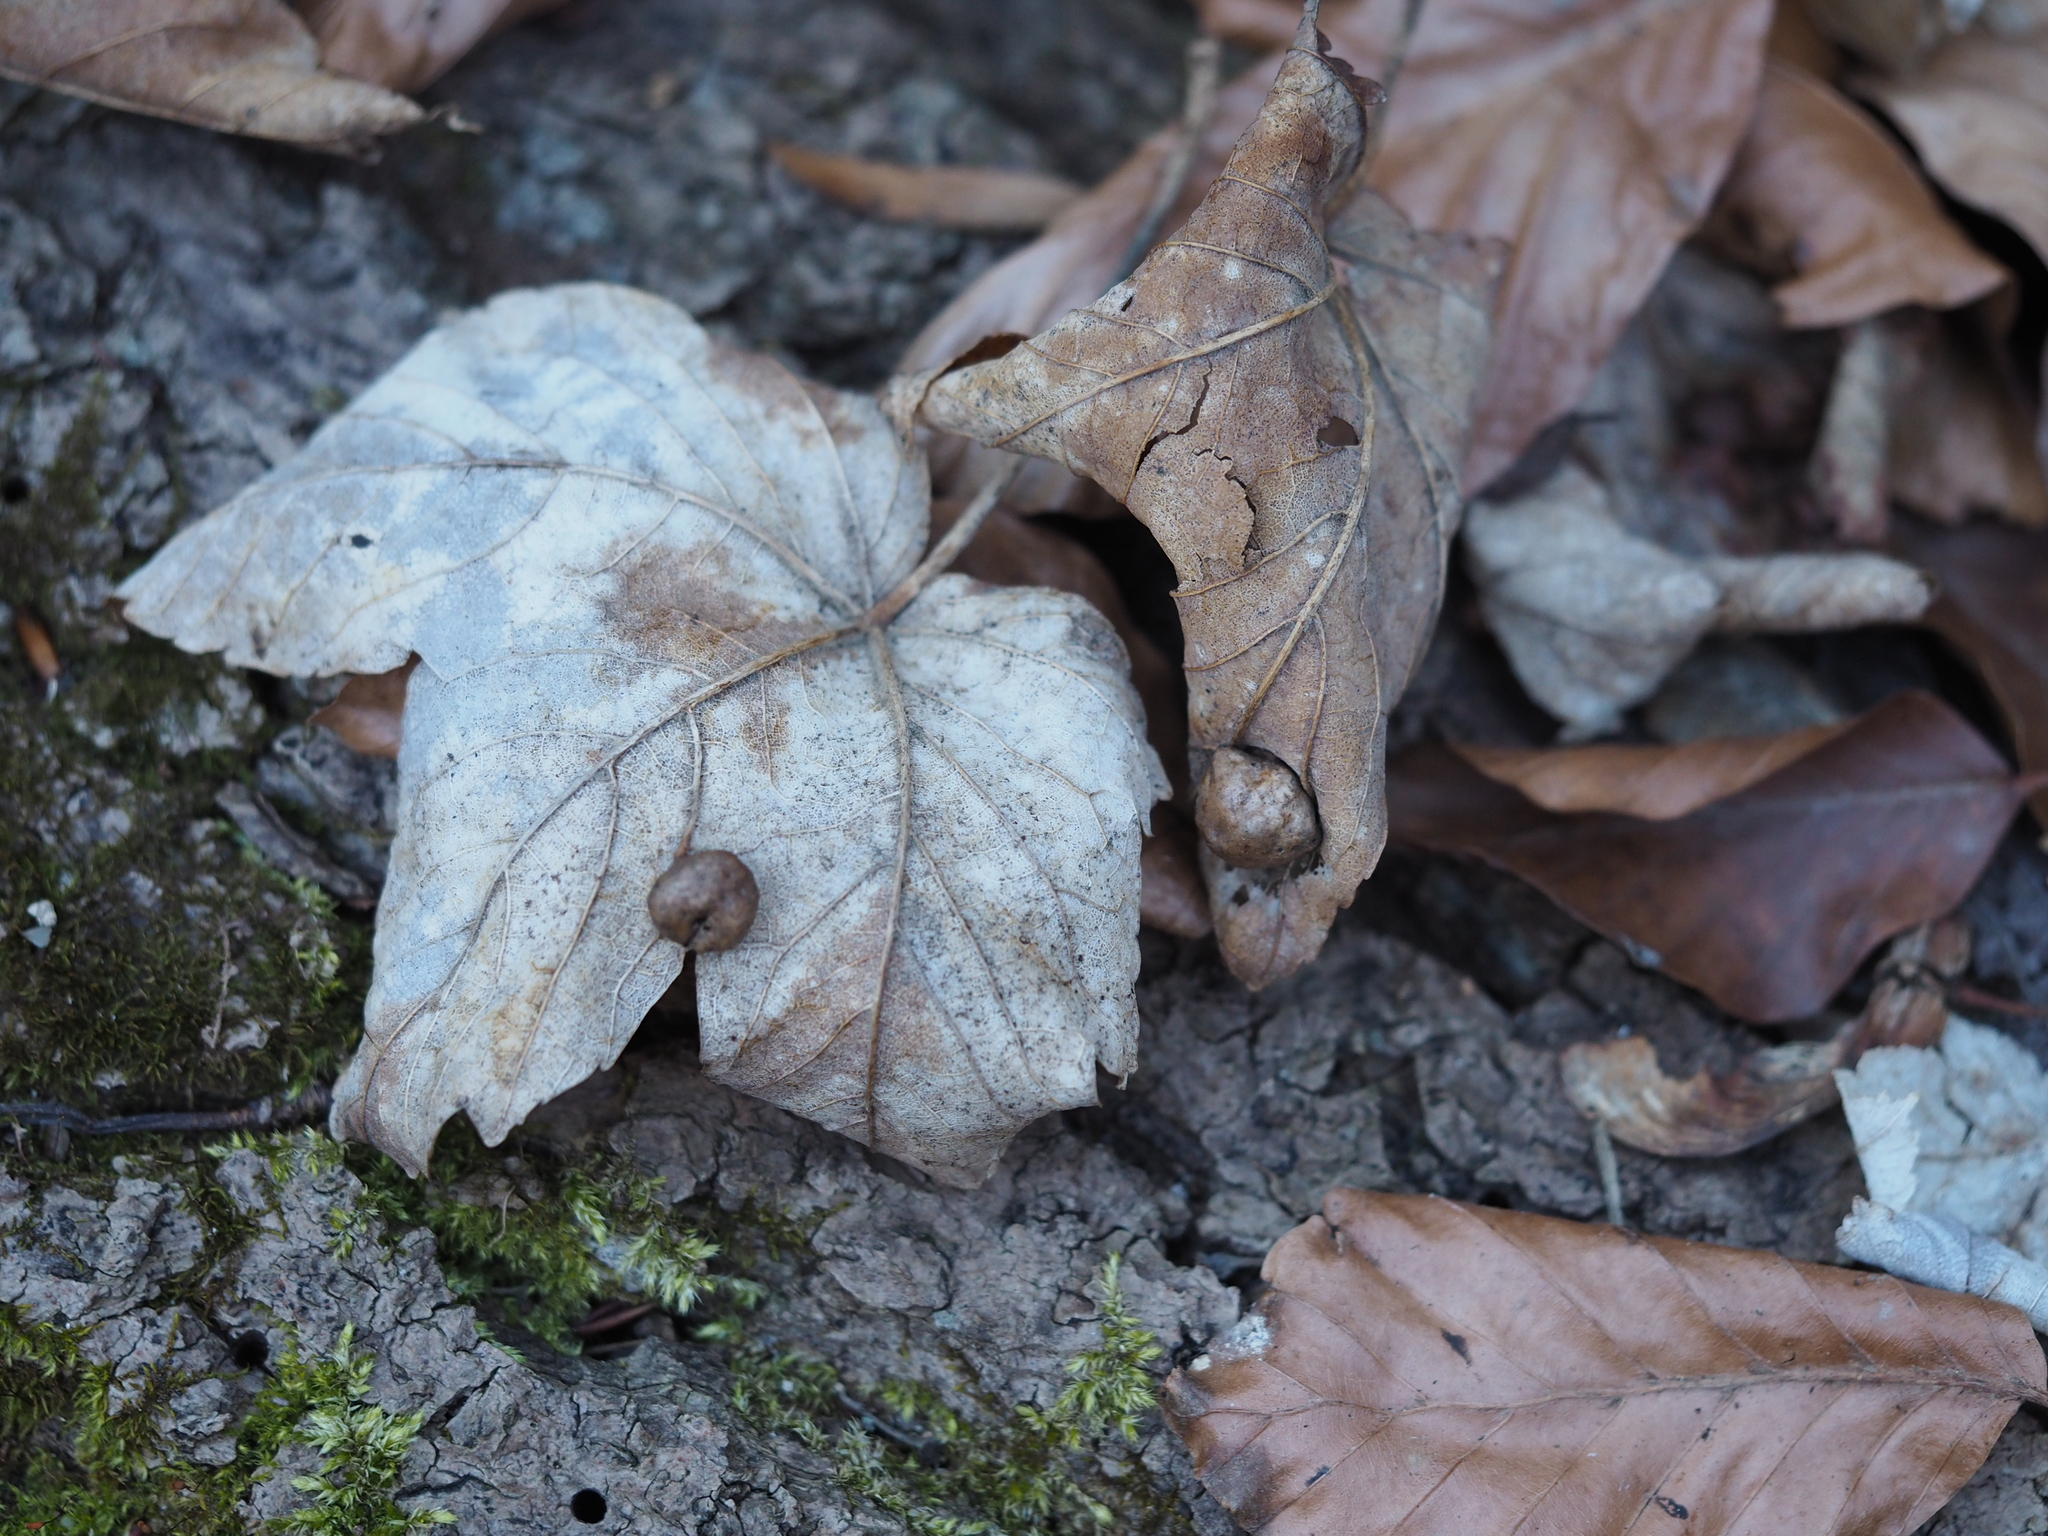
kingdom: Animalia
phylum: Arthropoda
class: Insecta
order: Hymenoptera
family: Cynipidae
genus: Pediaspis
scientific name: Pediaspis aceris
